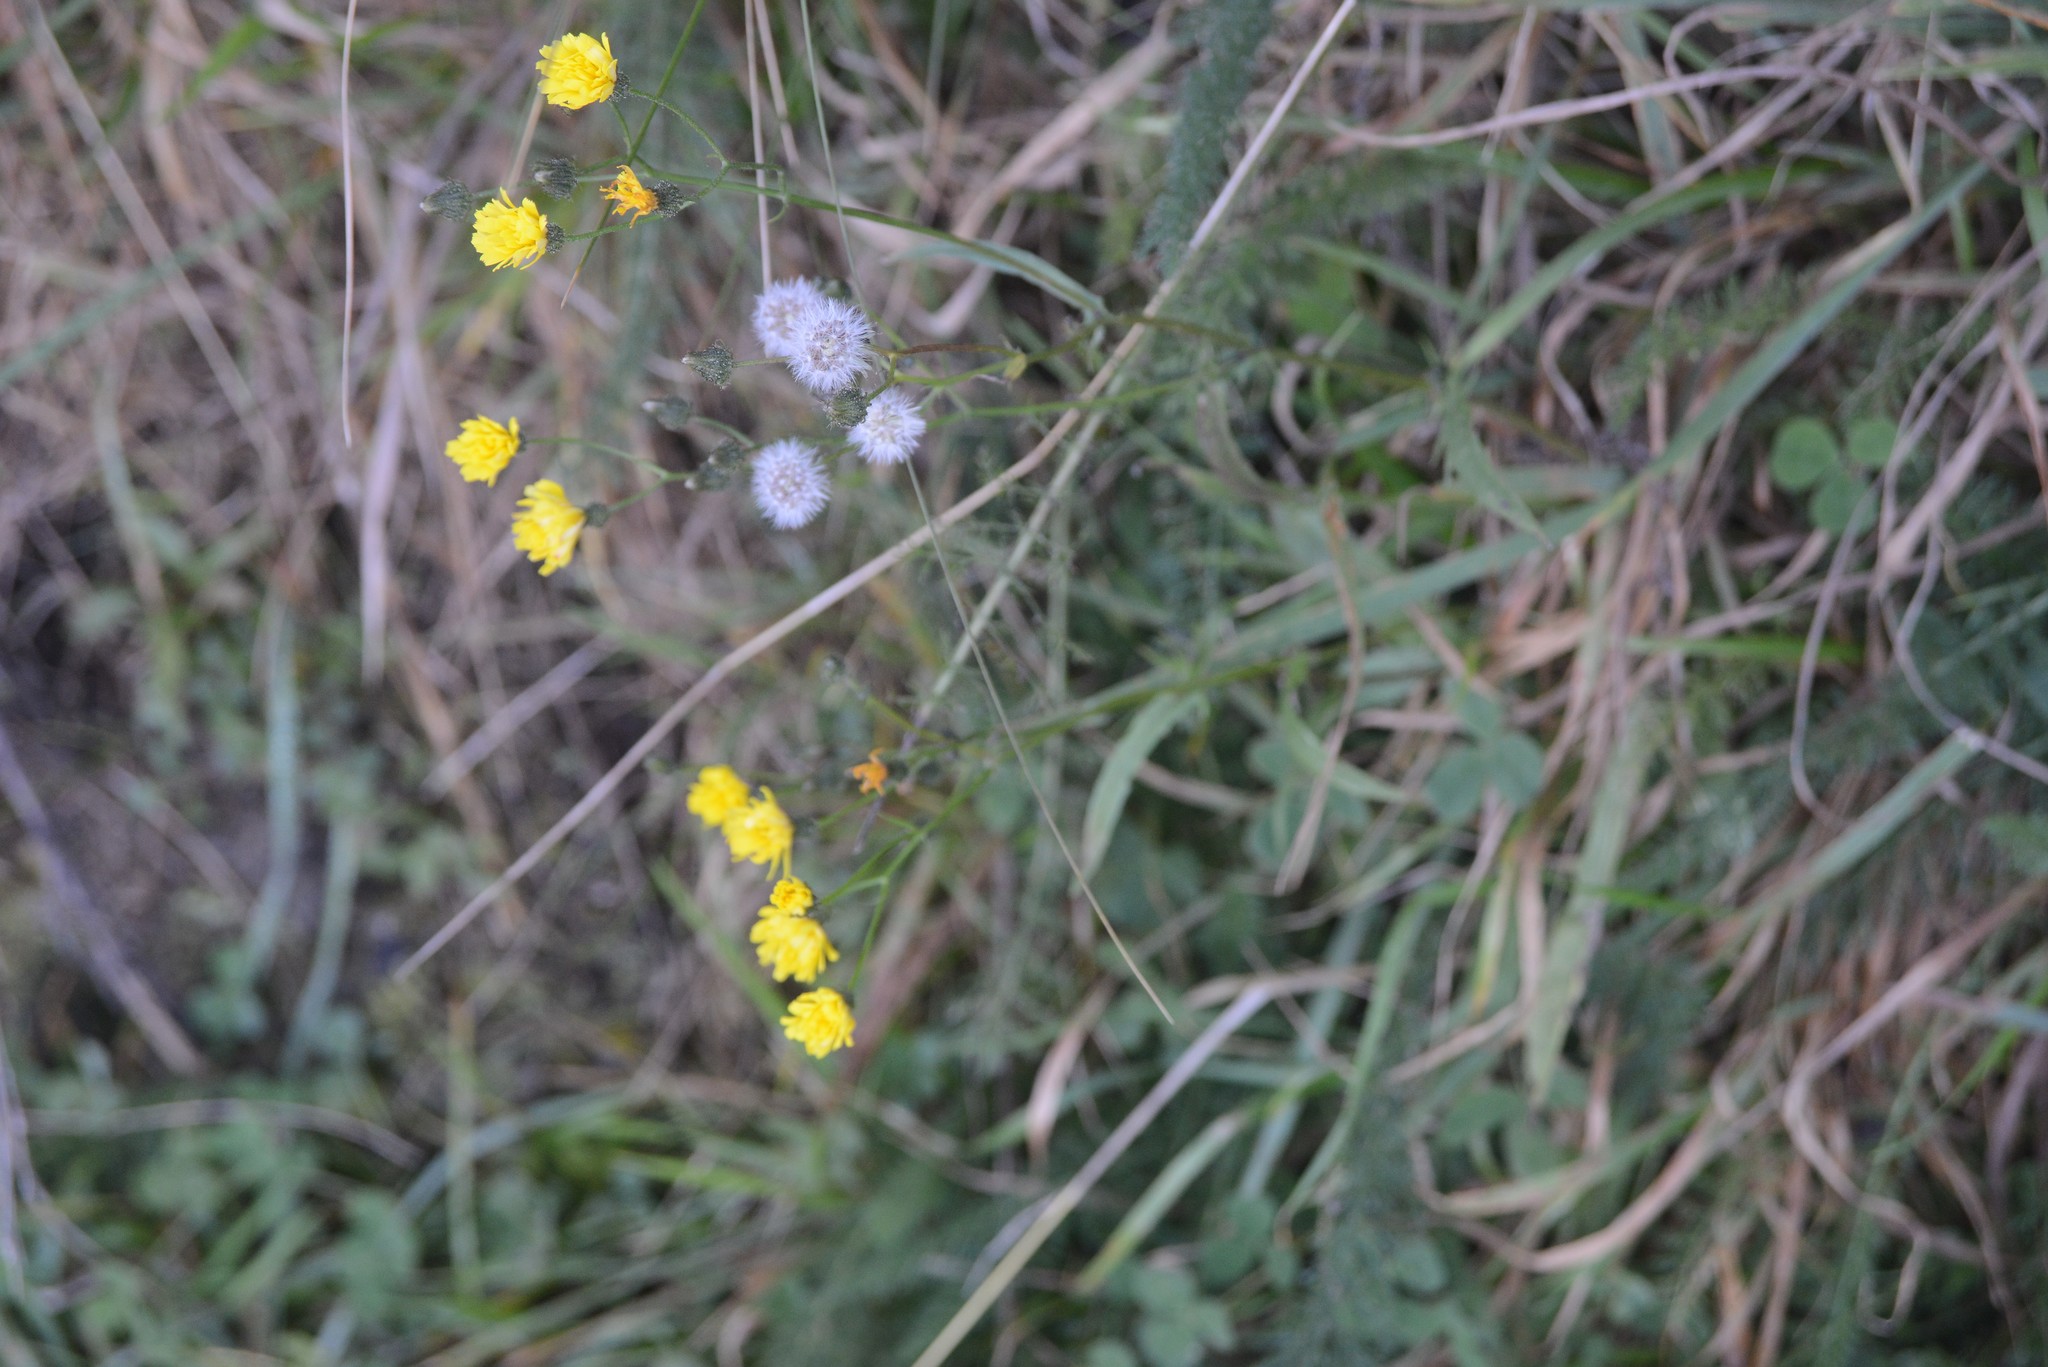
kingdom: Plantae
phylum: Tracheophyta
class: Magnoliopsida
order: Asterales
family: Asteraceae
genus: Crepis
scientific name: Crepis capillaris
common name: Smooth hawksbeard
